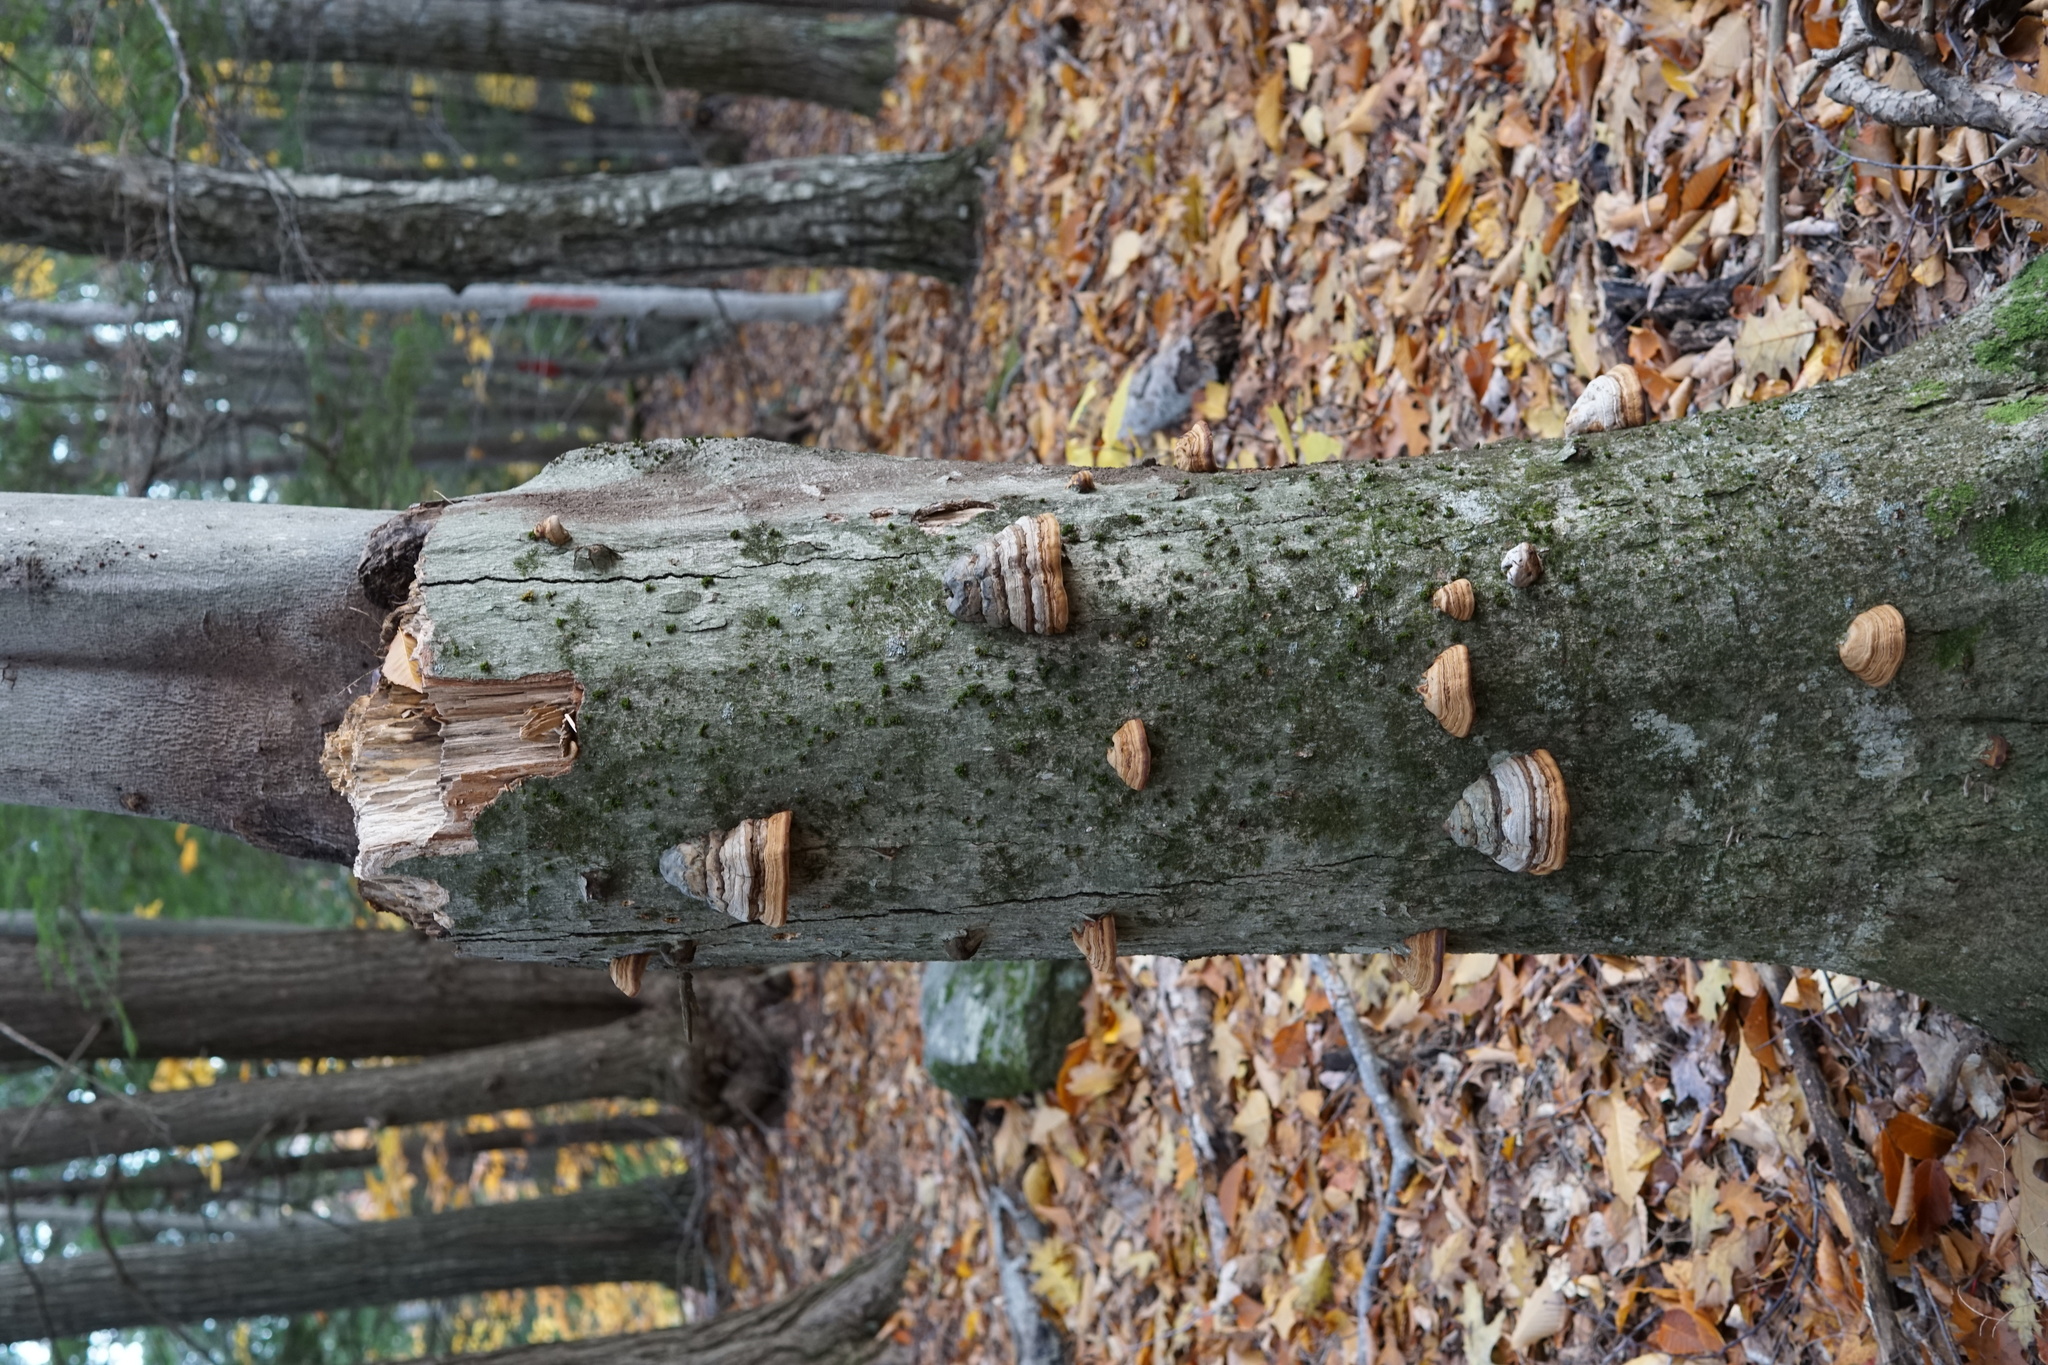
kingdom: Fungi
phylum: Basidiomycota
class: Agaricomycetes
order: Polyporales
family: Polyporaceae
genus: Fomes
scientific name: Fomes fomentarius
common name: Hoof fungus
